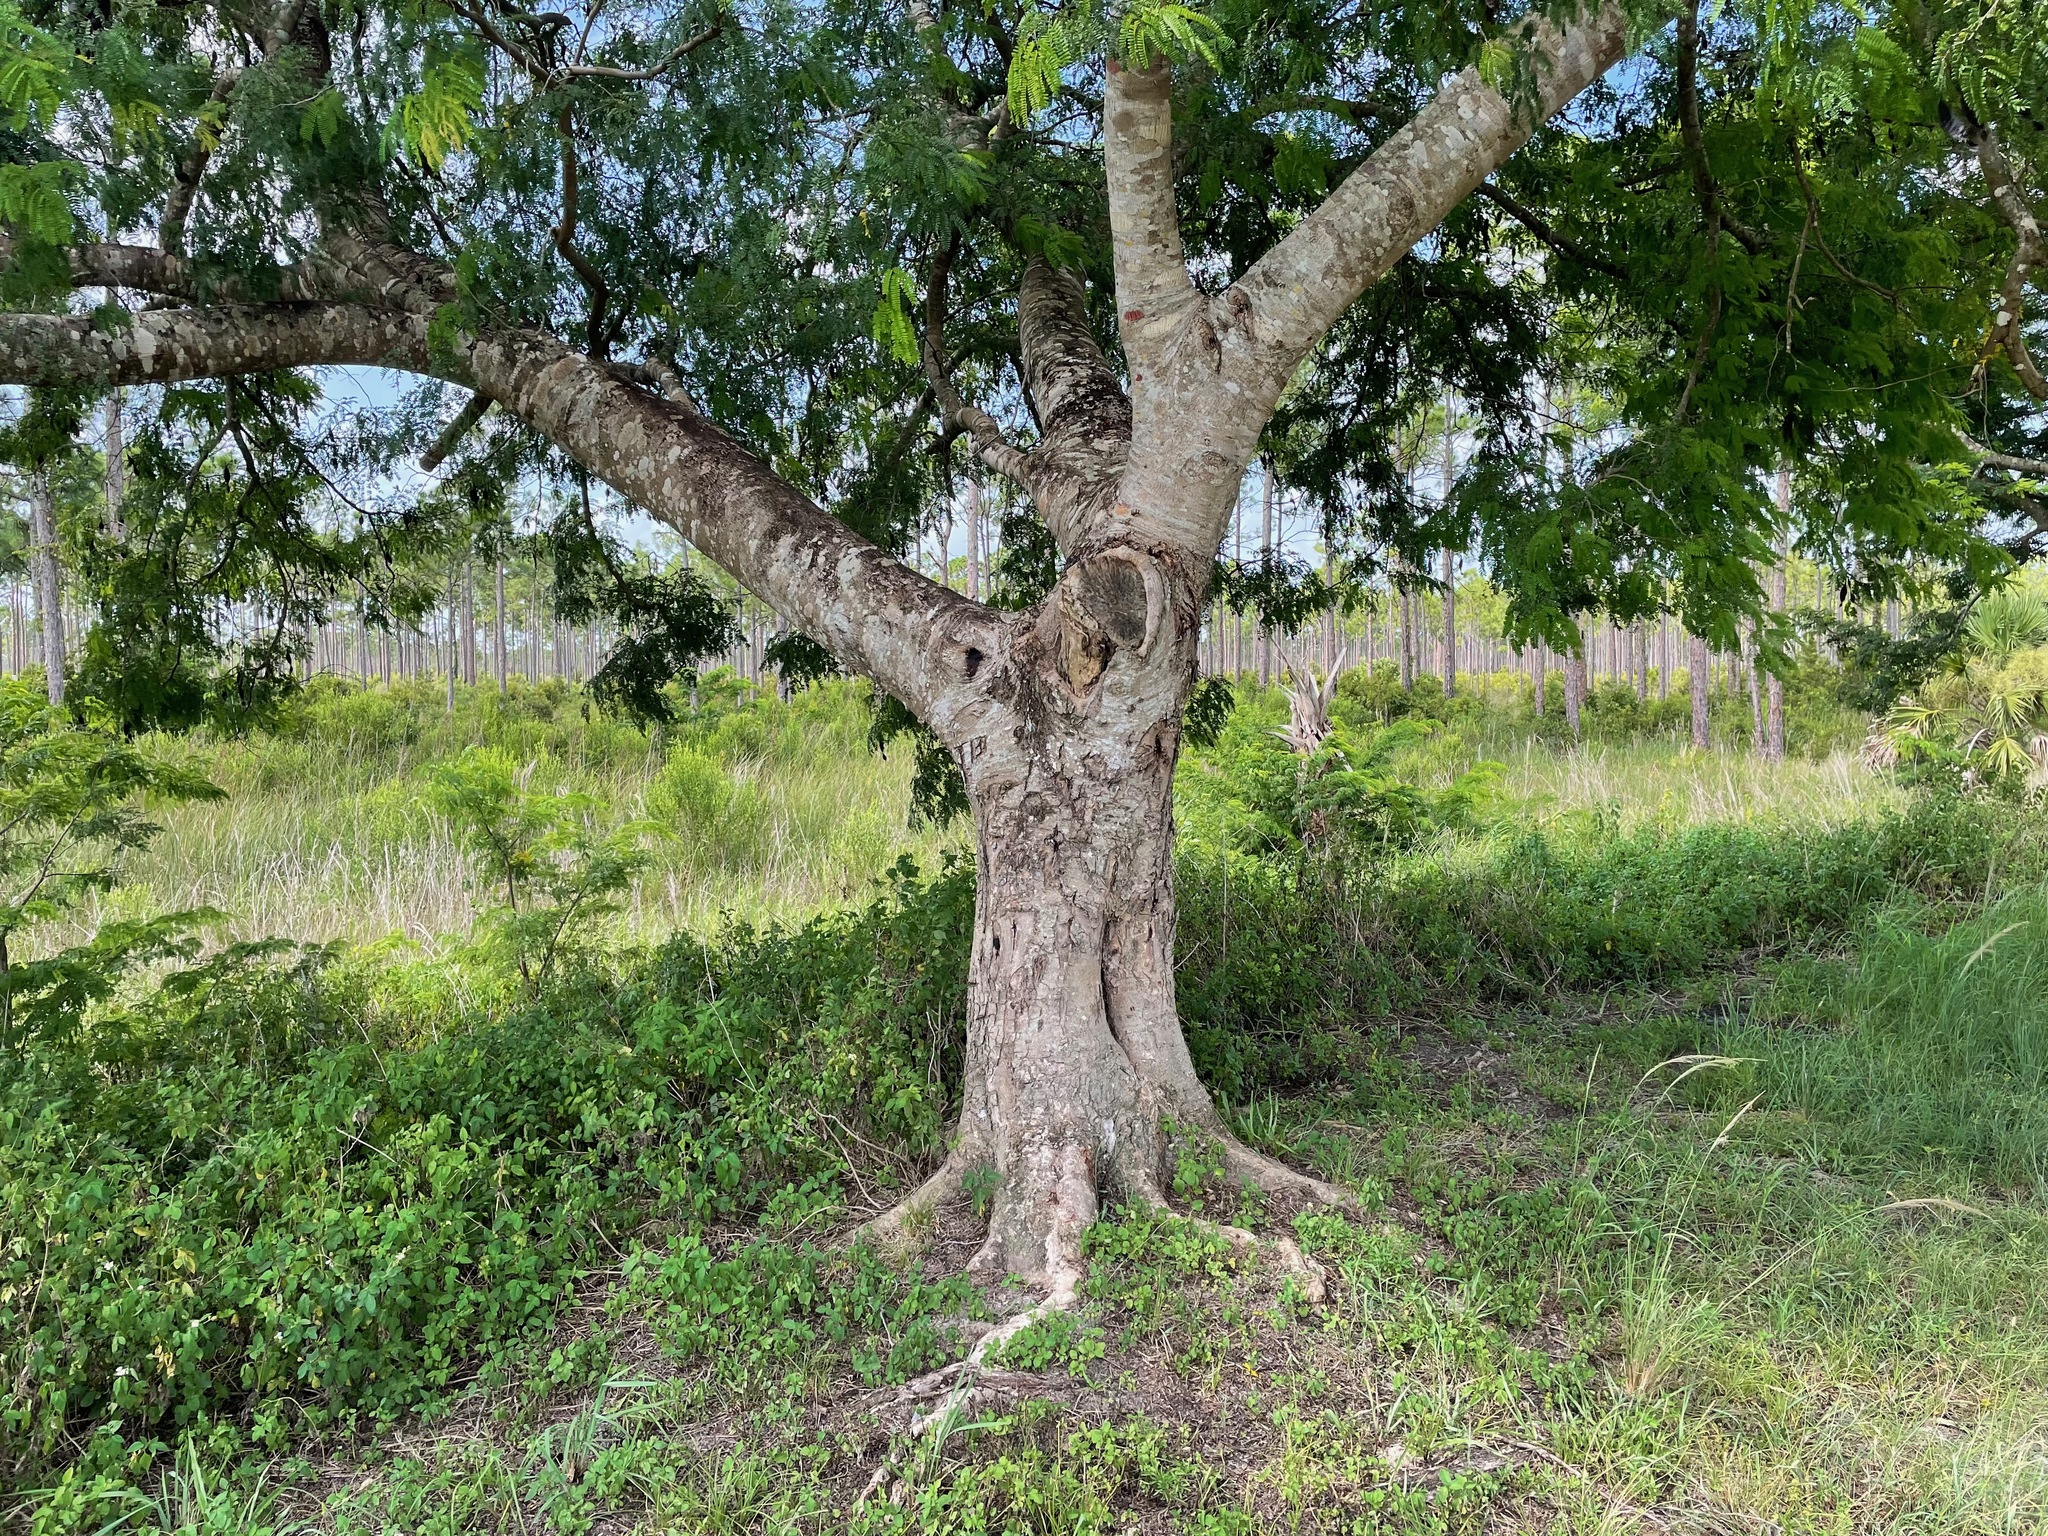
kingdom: Plantae
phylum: Tracheophyta
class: Magnoliopsida
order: Fabales
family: Fabaceae
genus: Lysiloma
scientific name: Lysiloma latisiliquum
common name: Wild tamarind
